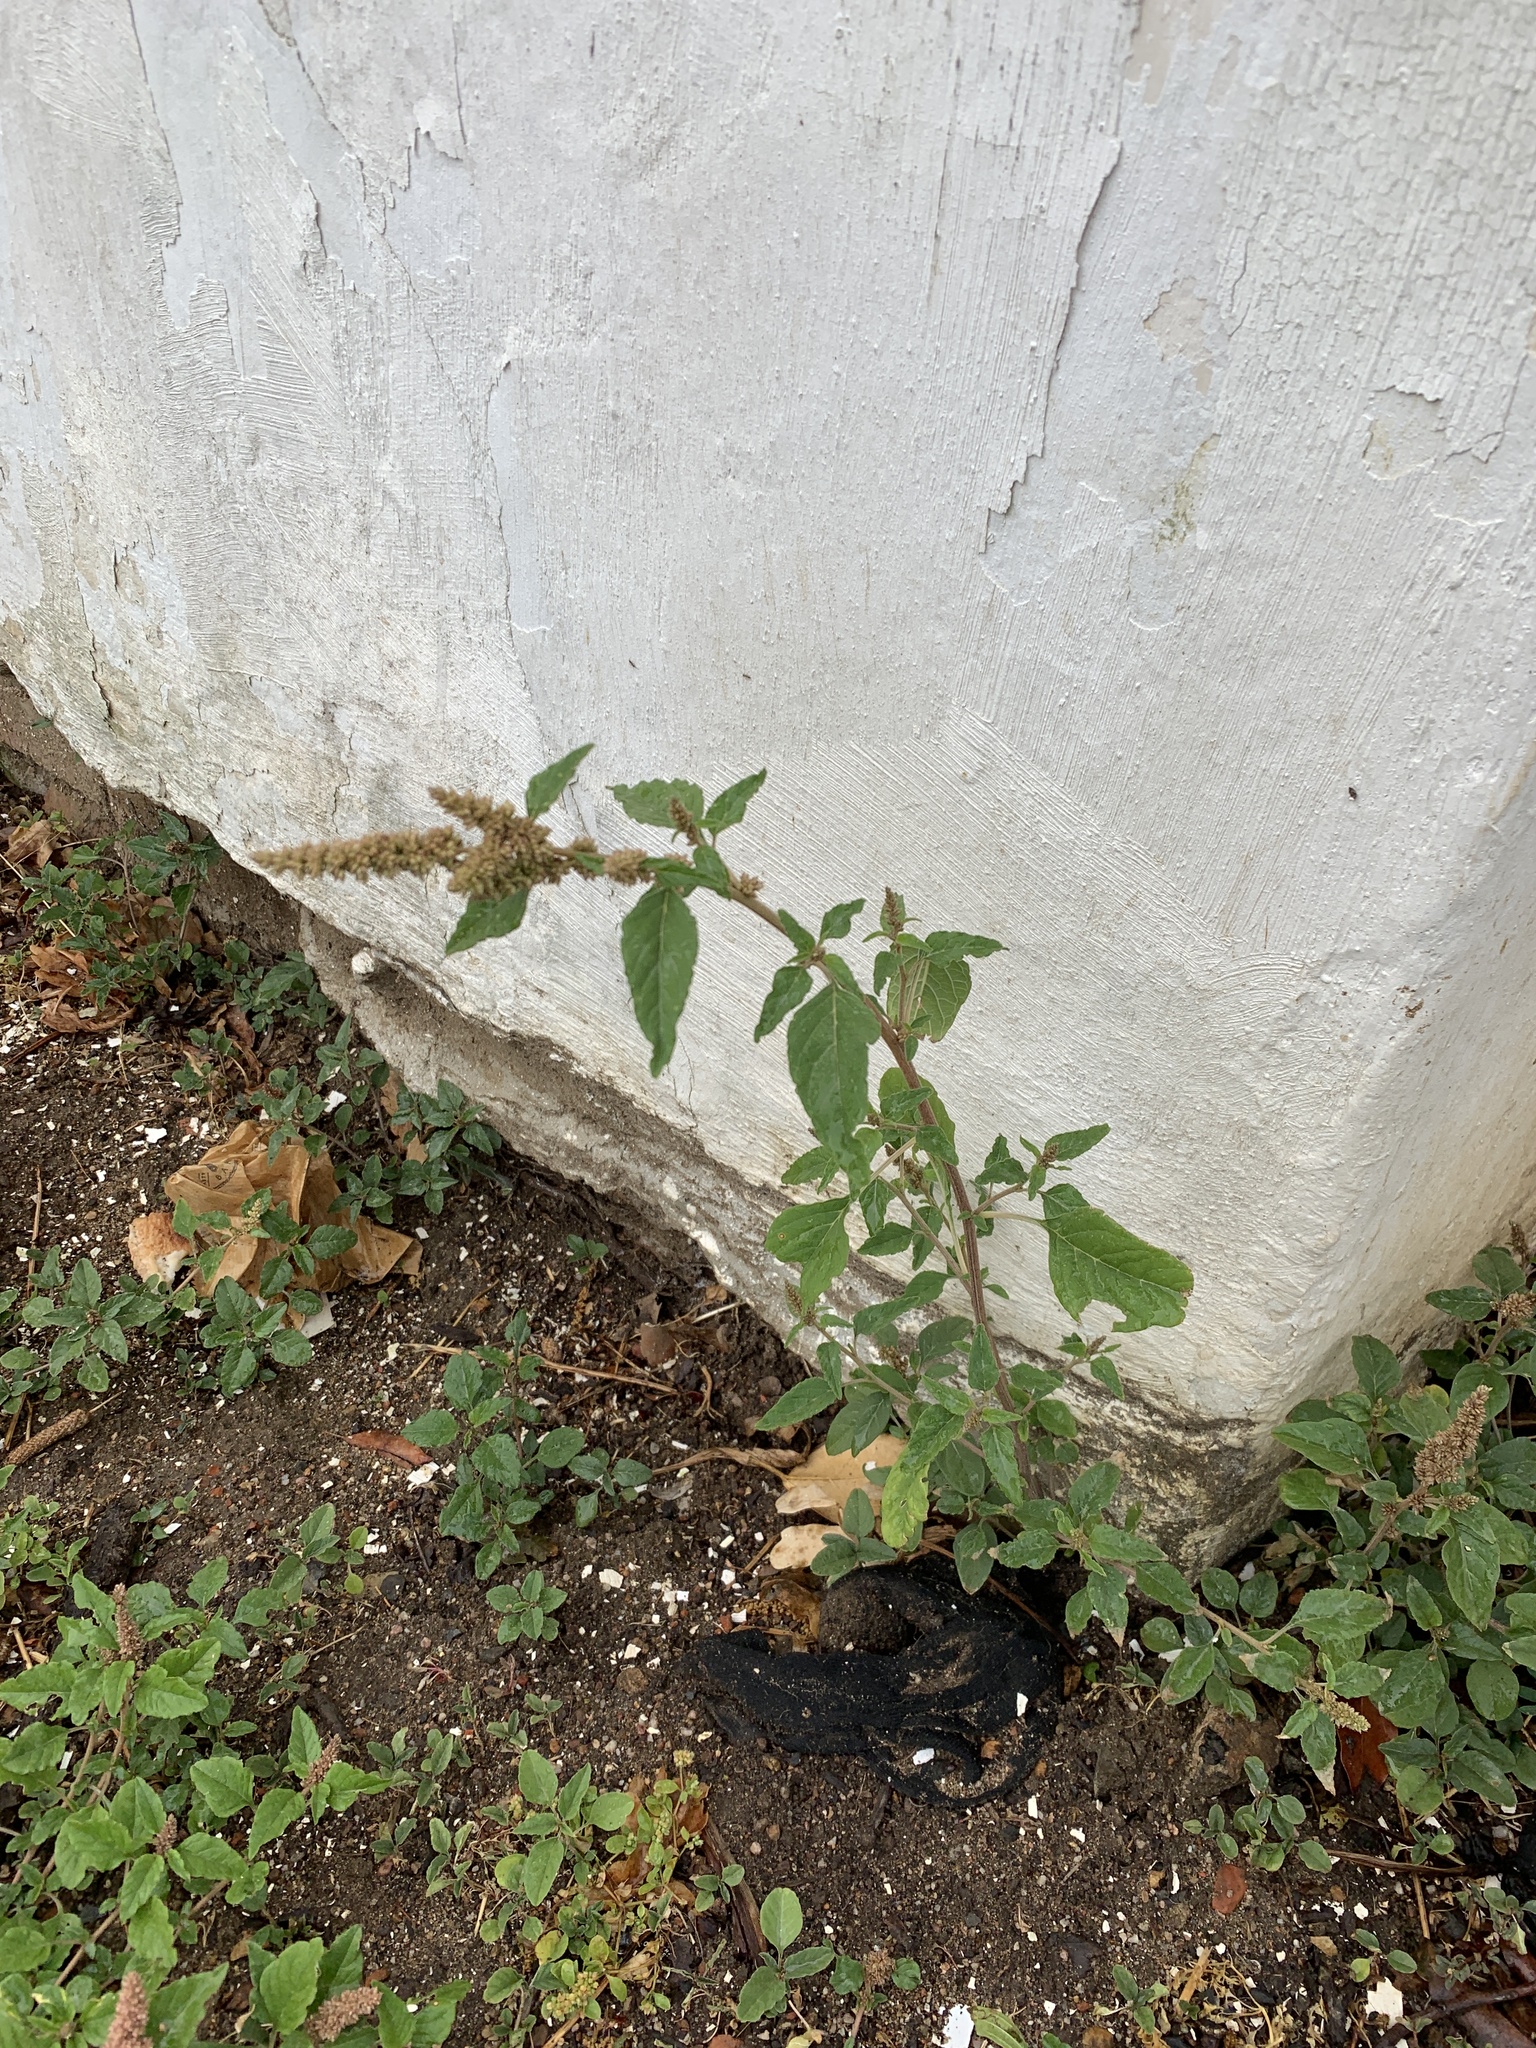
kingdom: Plantae
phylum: Tracheophyta
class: Magnoliopsida
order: Caryophyllales
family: Amaranthaceae
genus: Amaranthus
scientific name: Amaranthus deflexus
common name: Perennial pigweed
